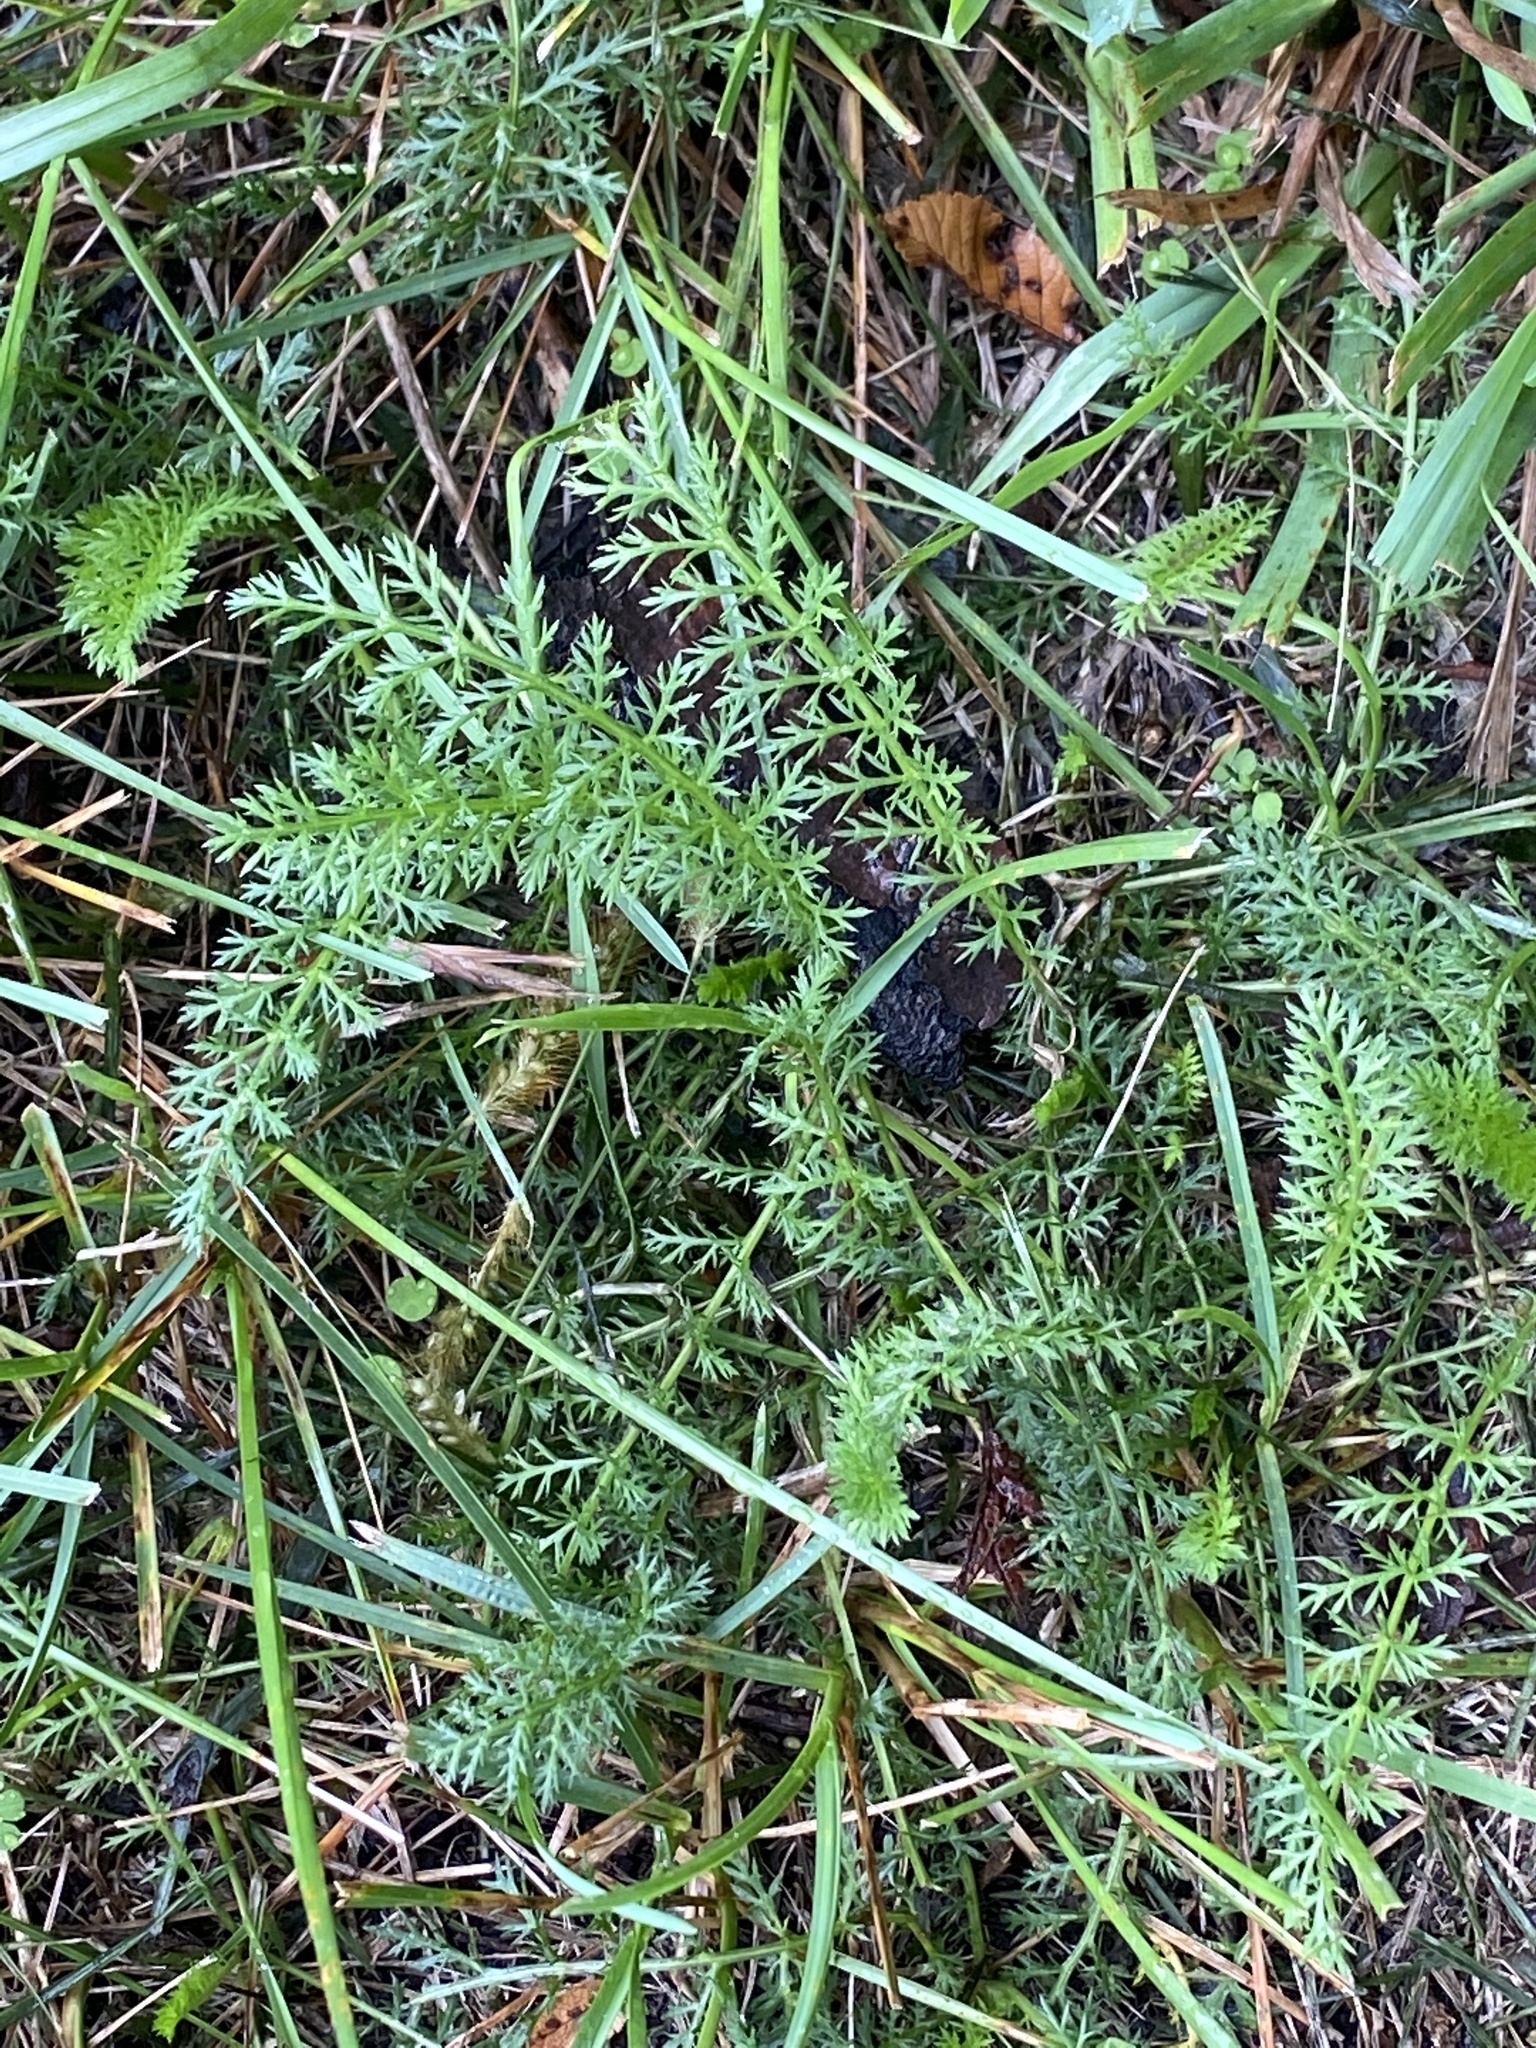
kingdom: Plantae
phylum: Tracheophyta
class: Magnoliopsida
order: Asterales
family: Asteraceae
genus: Achillea
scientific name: Achillea millefolium
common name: Yarrow
